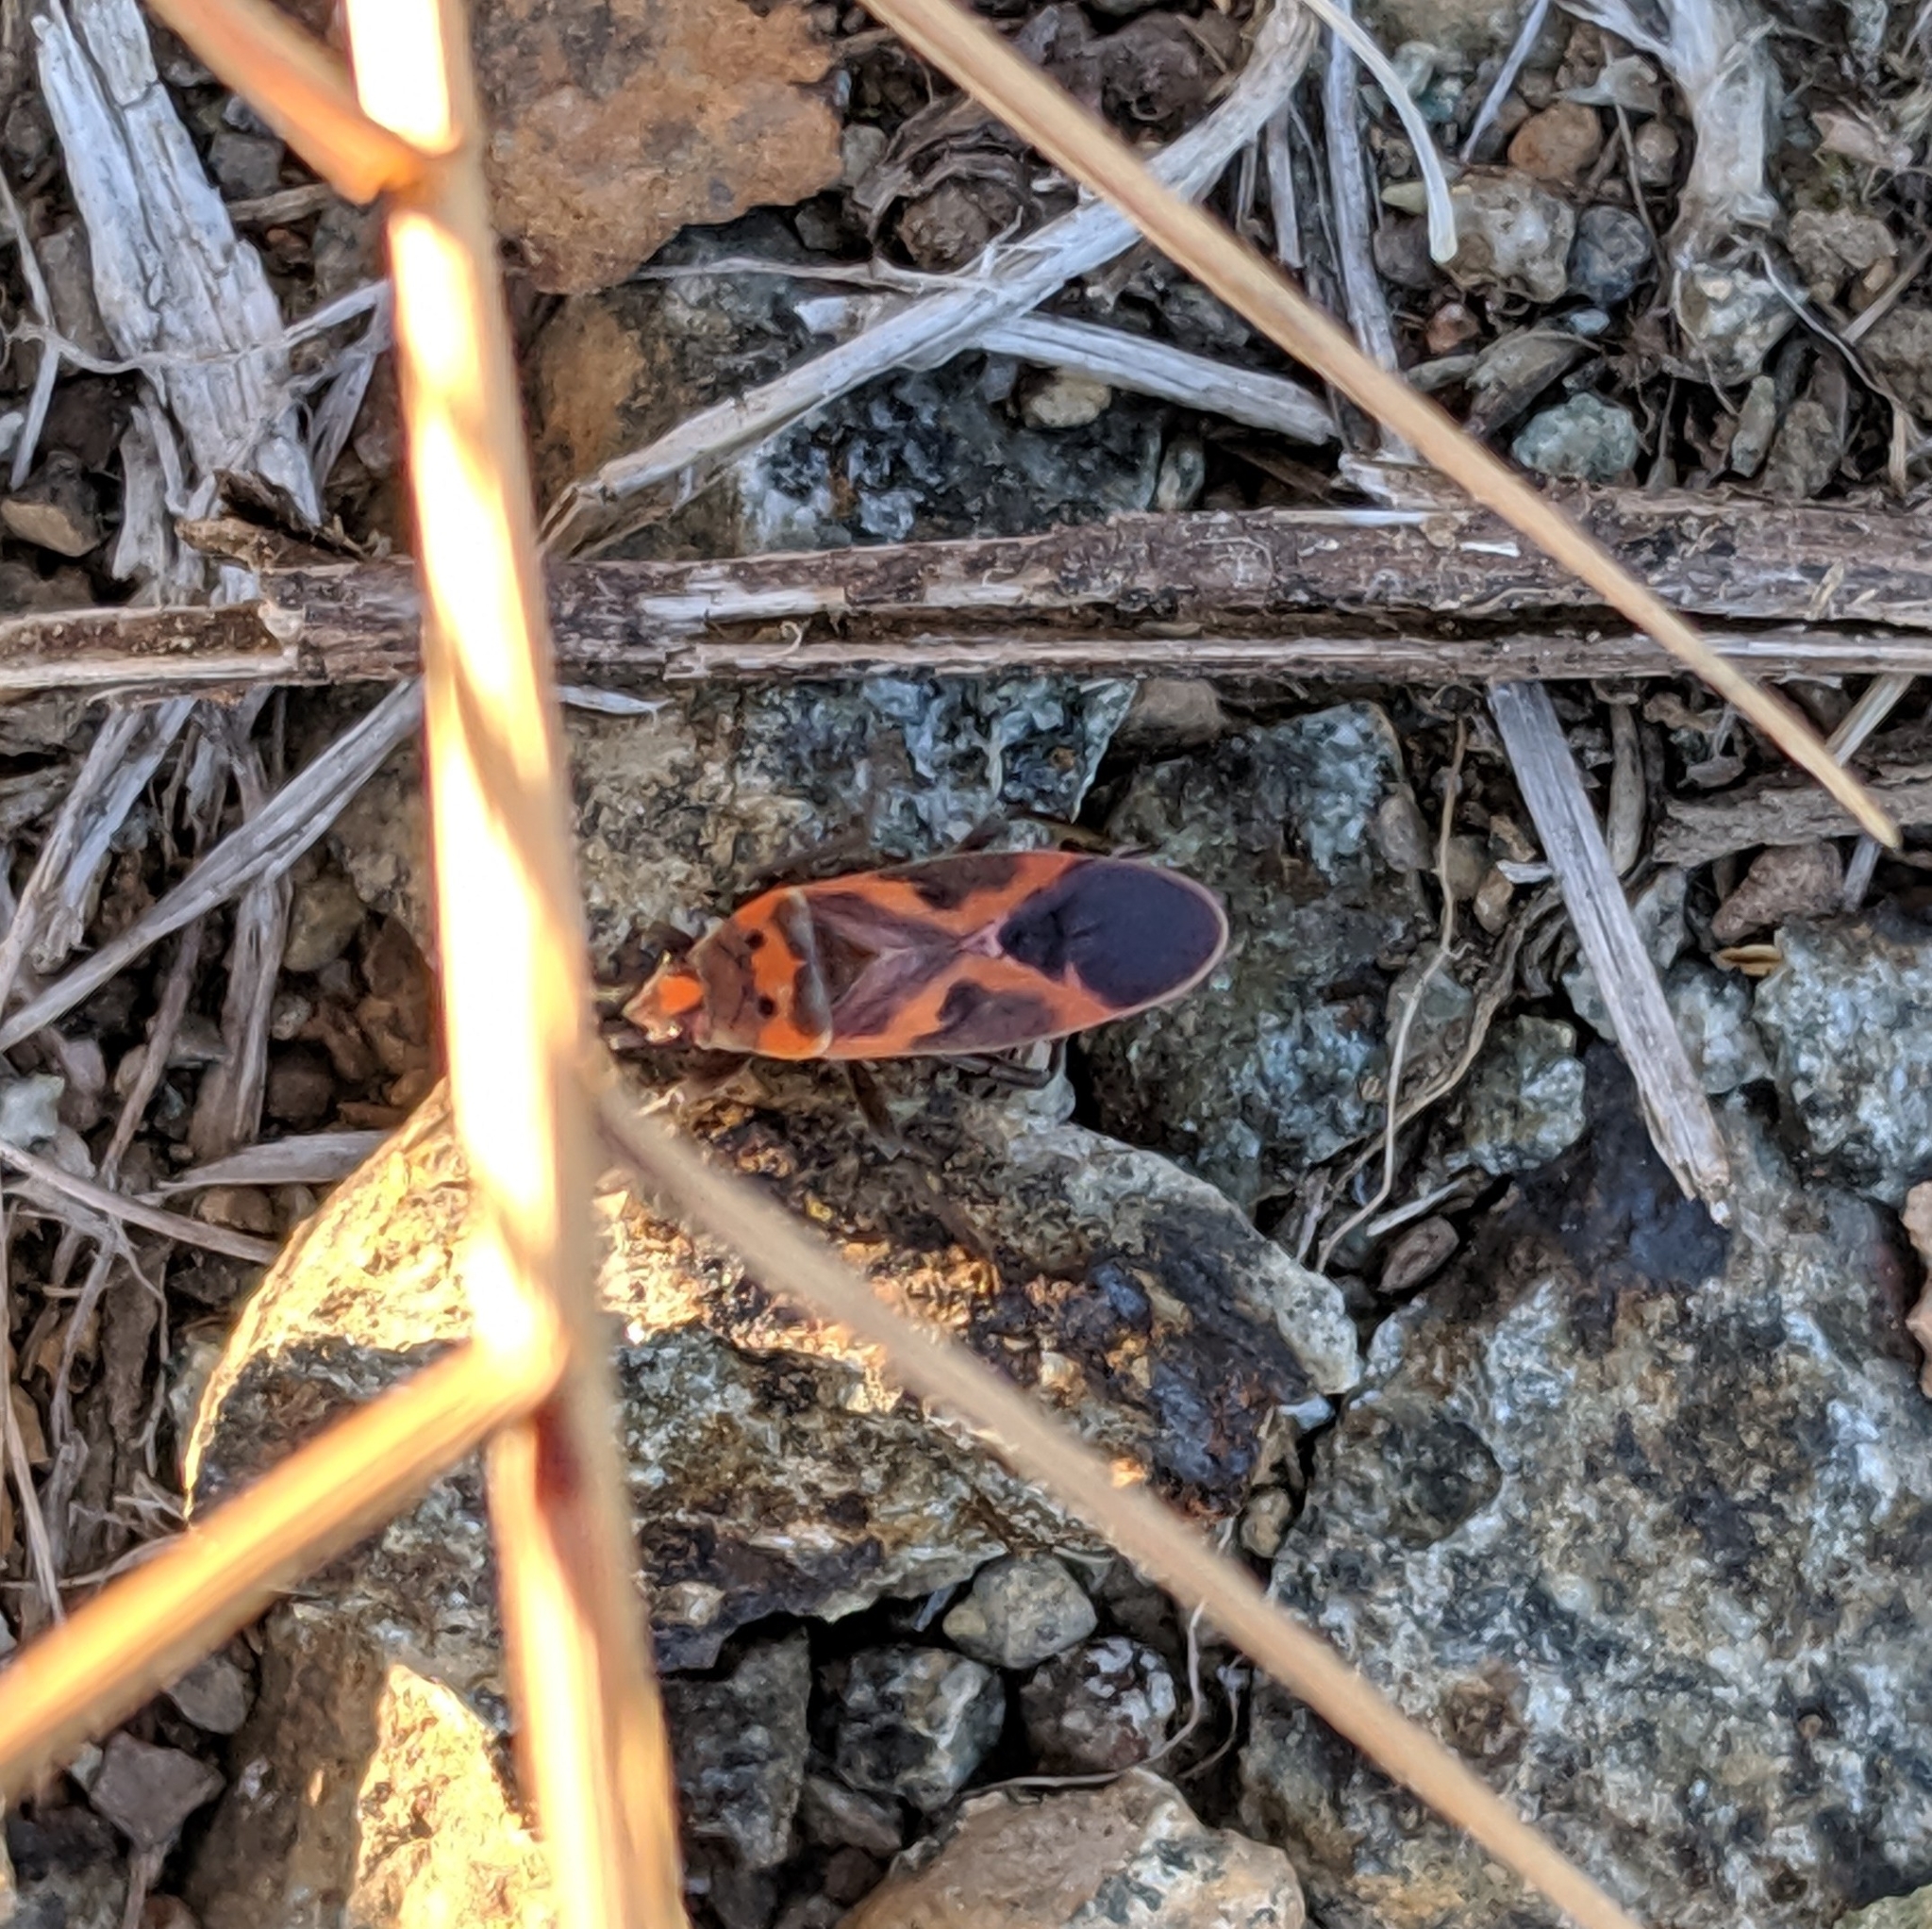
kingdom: Animalia
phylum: Arthropoda
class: Insecta
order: Hemiptera
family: Lygaeidae
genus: Lygaeus
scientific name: Lygaeus kalmii
